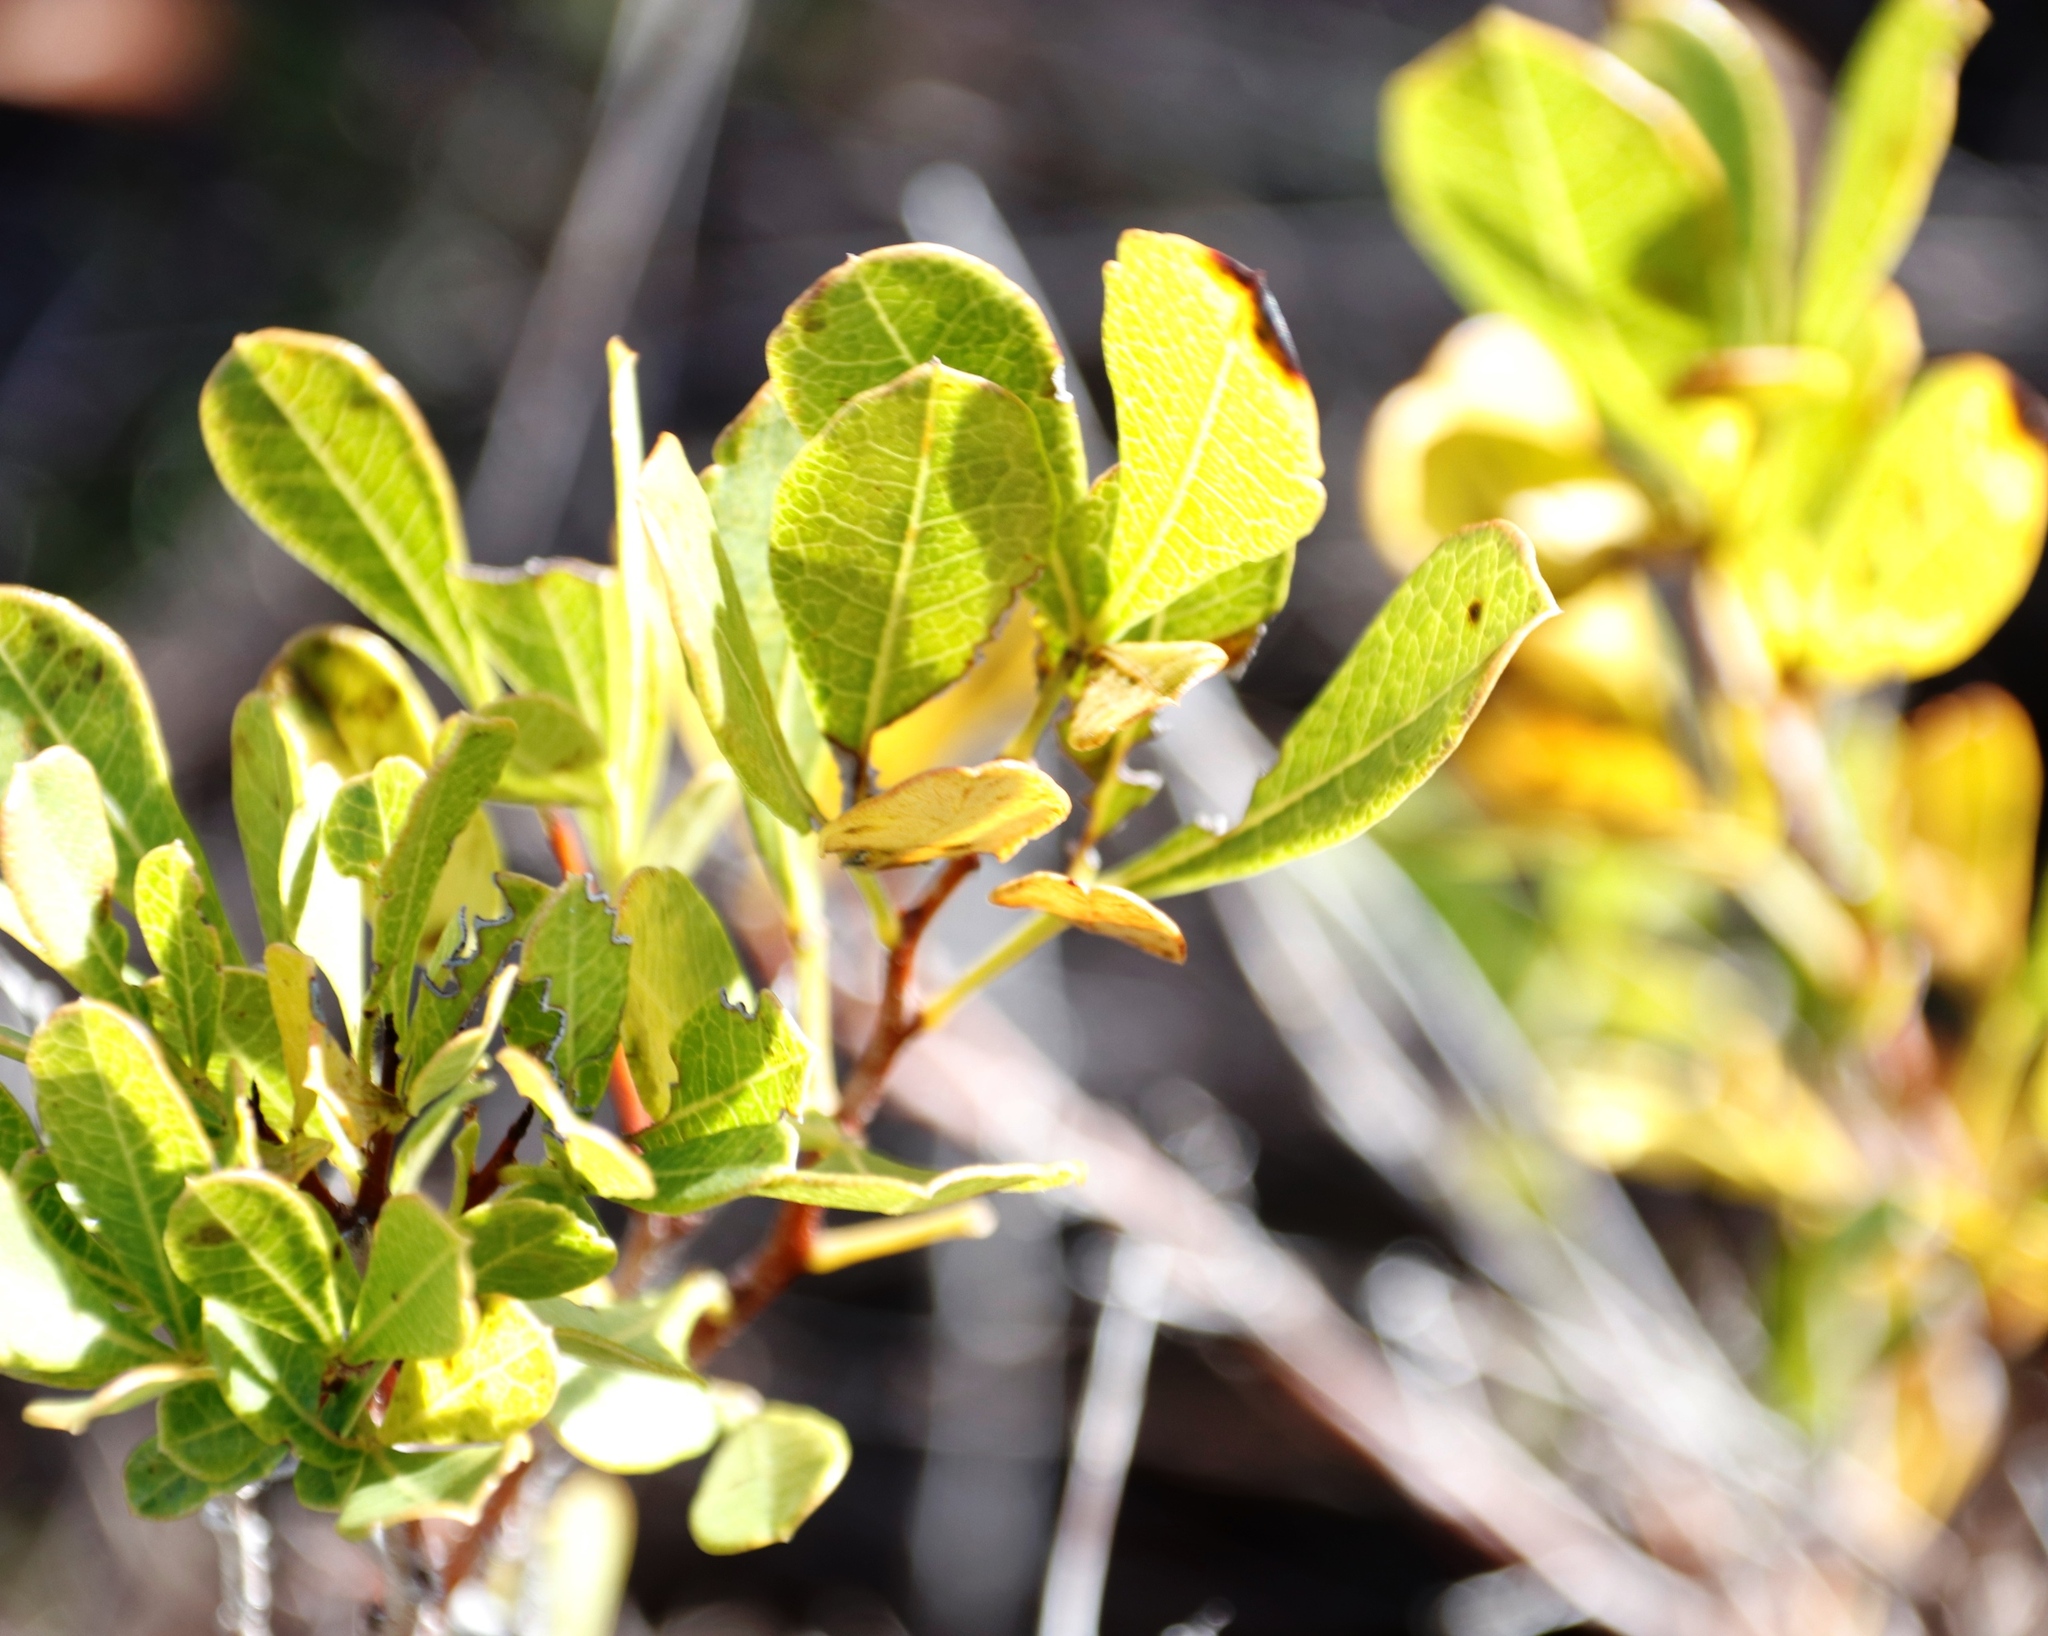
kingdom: Plantae
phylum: Tracheophyta
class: Magnoliopsida
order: Sapindales
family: Anacardiaceae
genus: Searsia
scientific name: Searsia laevigata
